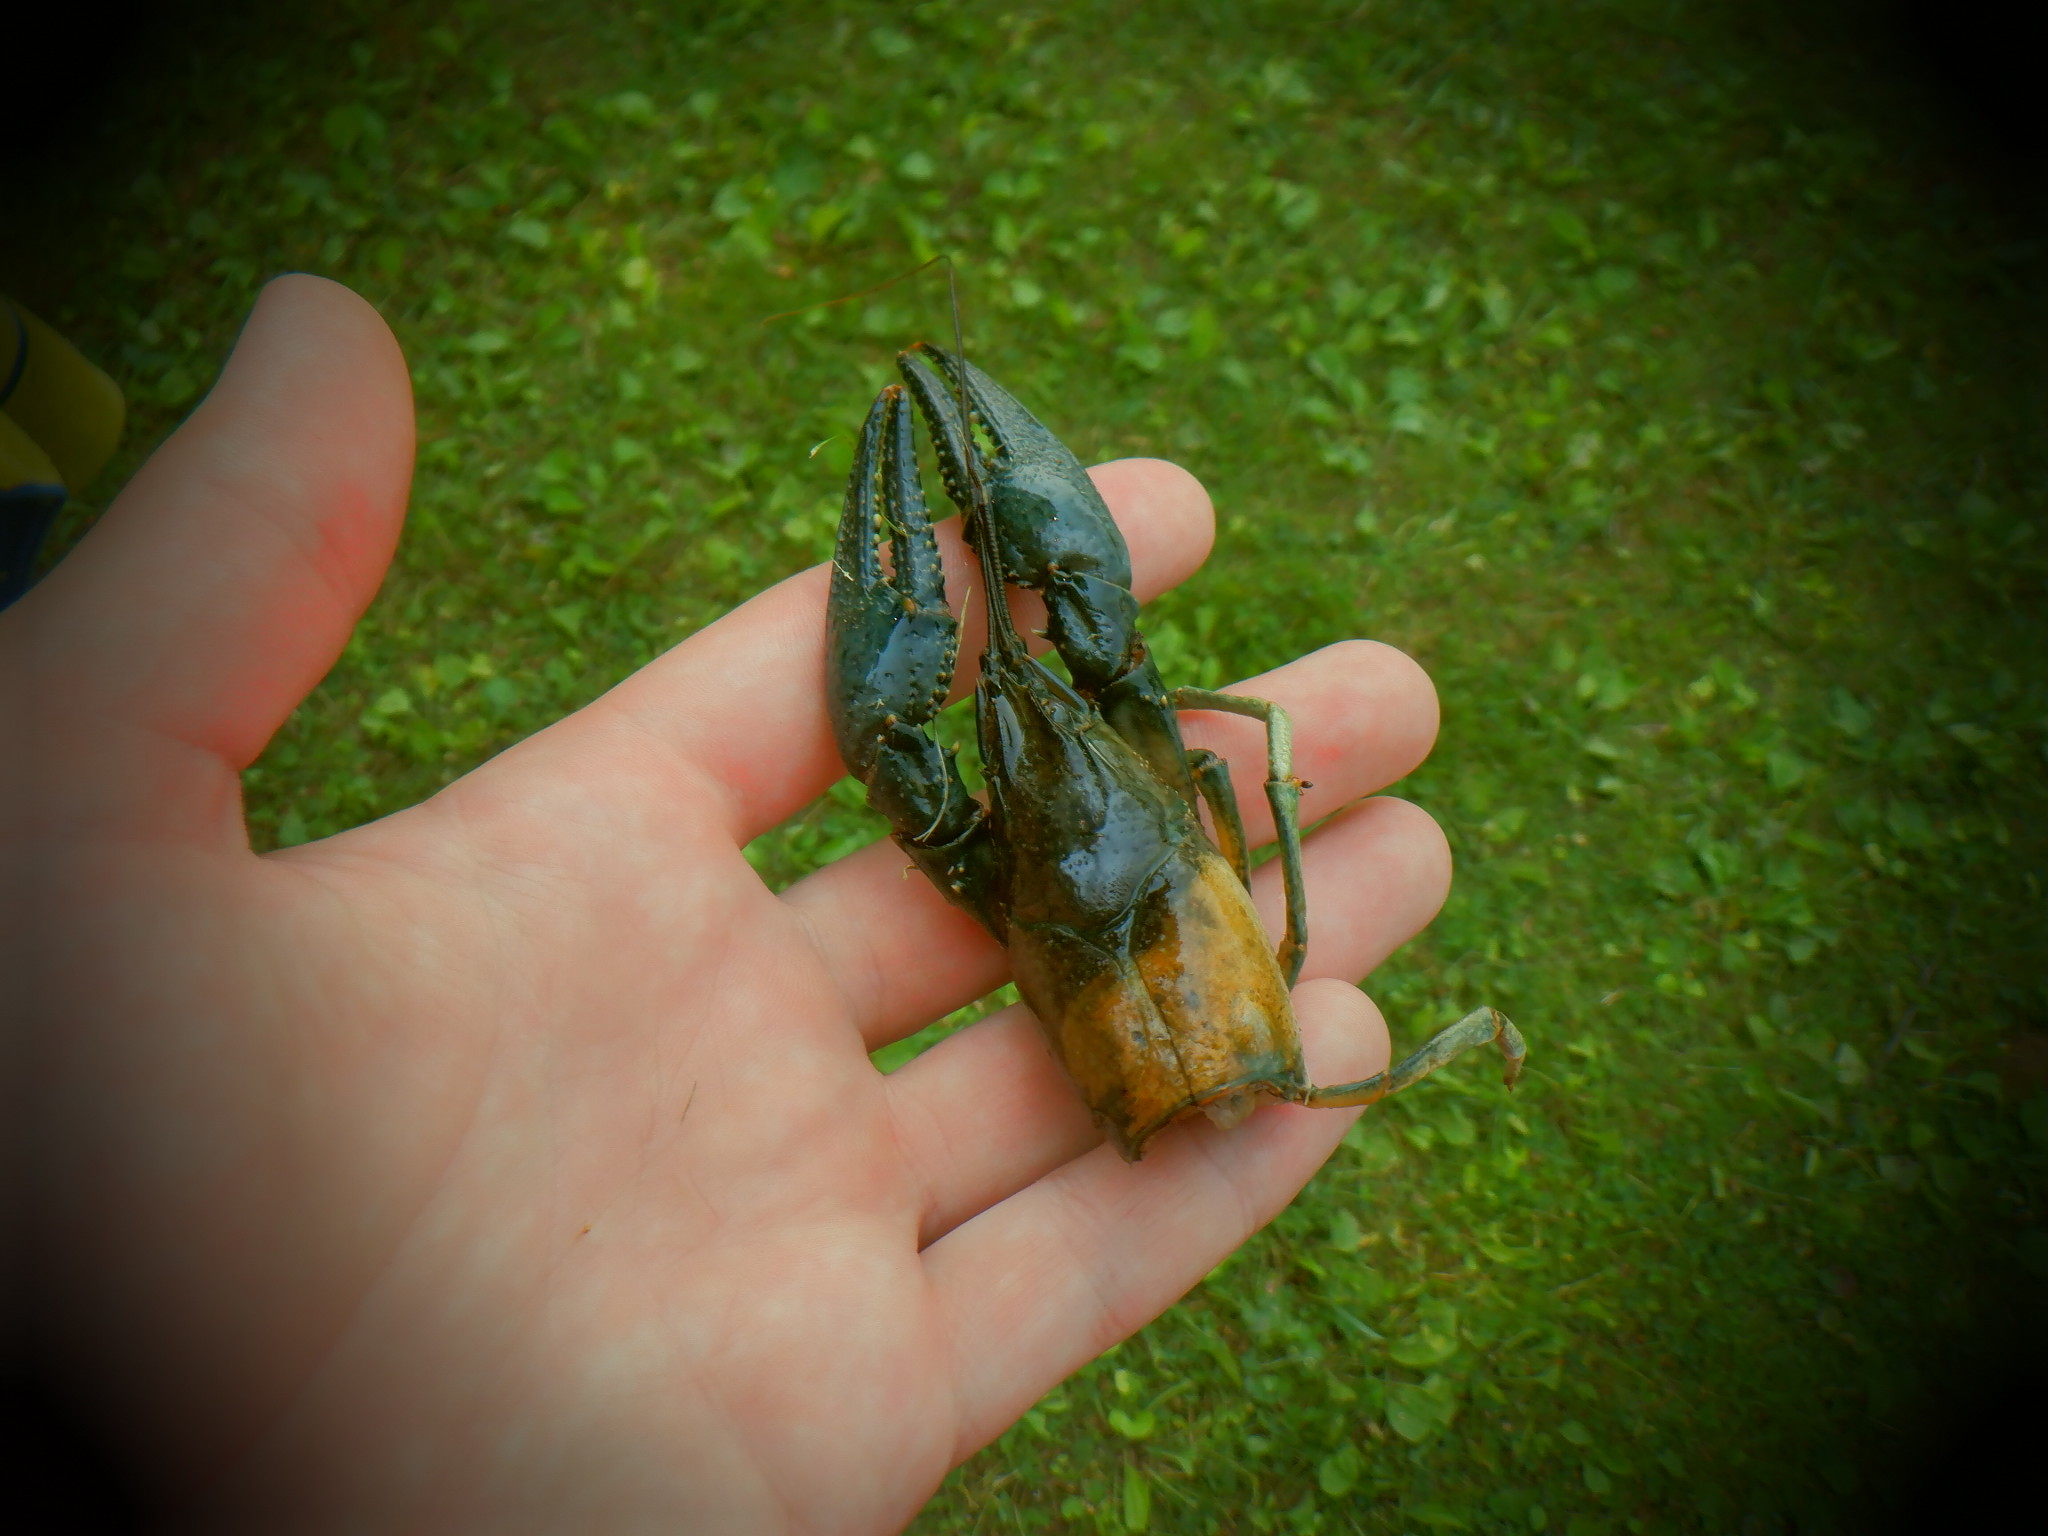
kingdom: Animalia
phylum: Arthropoda
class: Malacostraca
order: Decapoda
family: Cambaridae
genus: Faxonius
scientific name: Faxonius virilis
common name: Virile crayfish
